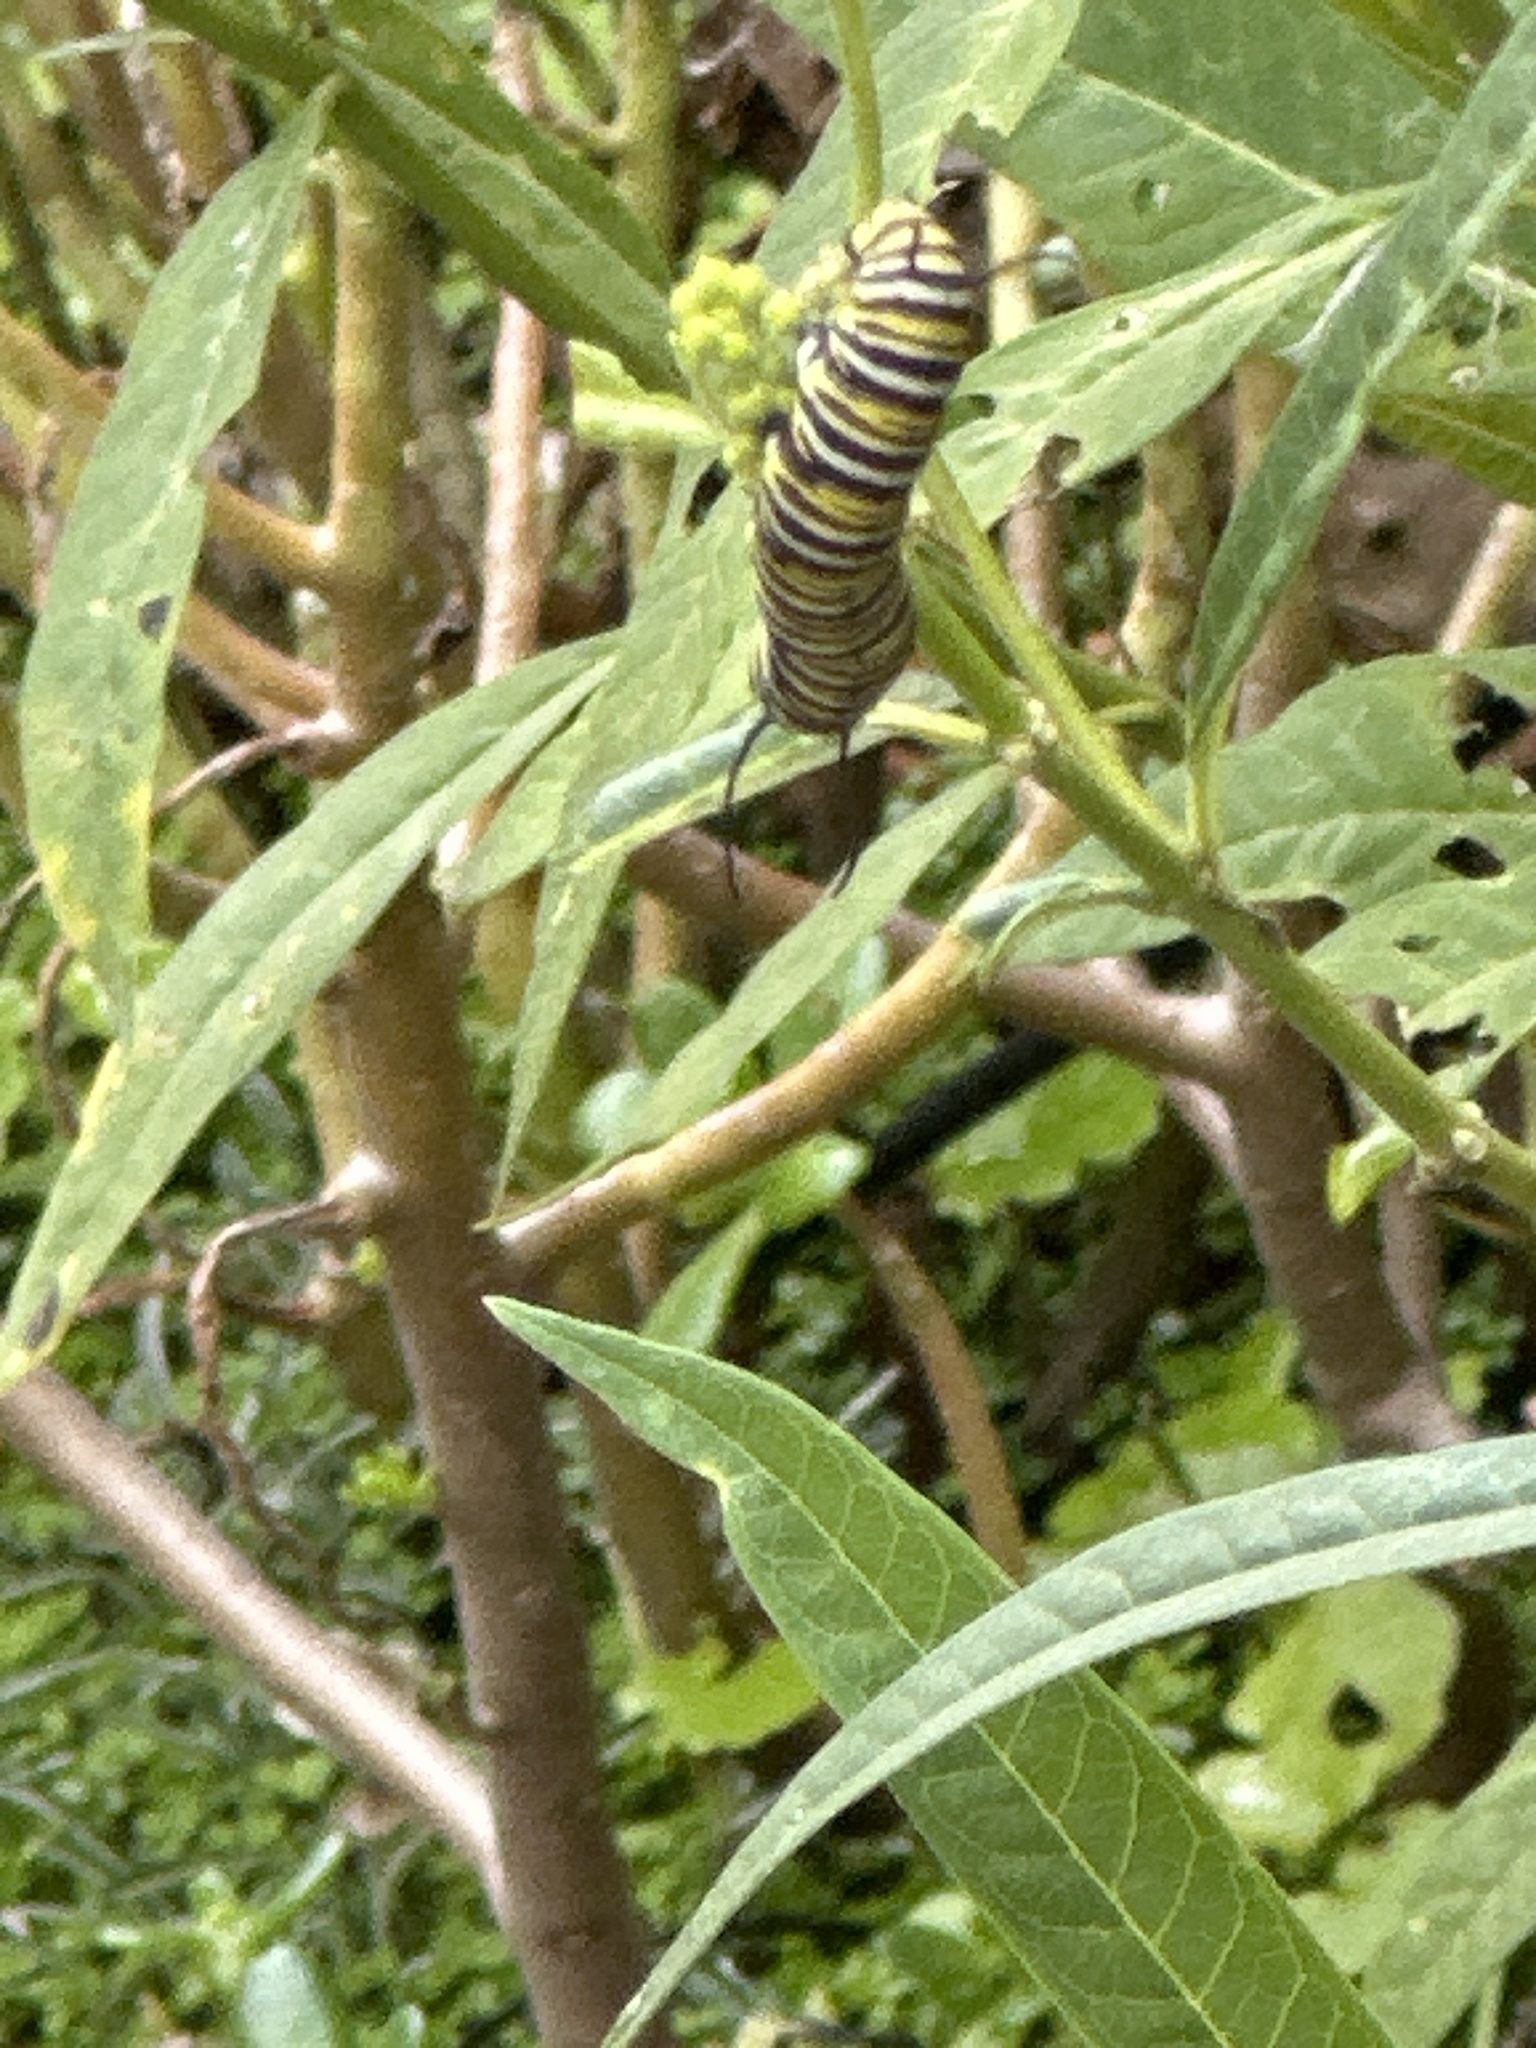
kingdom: Animalia
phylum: Arthropoda
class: Insecta
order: Lepidoptera
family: Nymphalidae
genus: Danaus
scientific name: Danaus plexippus
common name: Monarch
